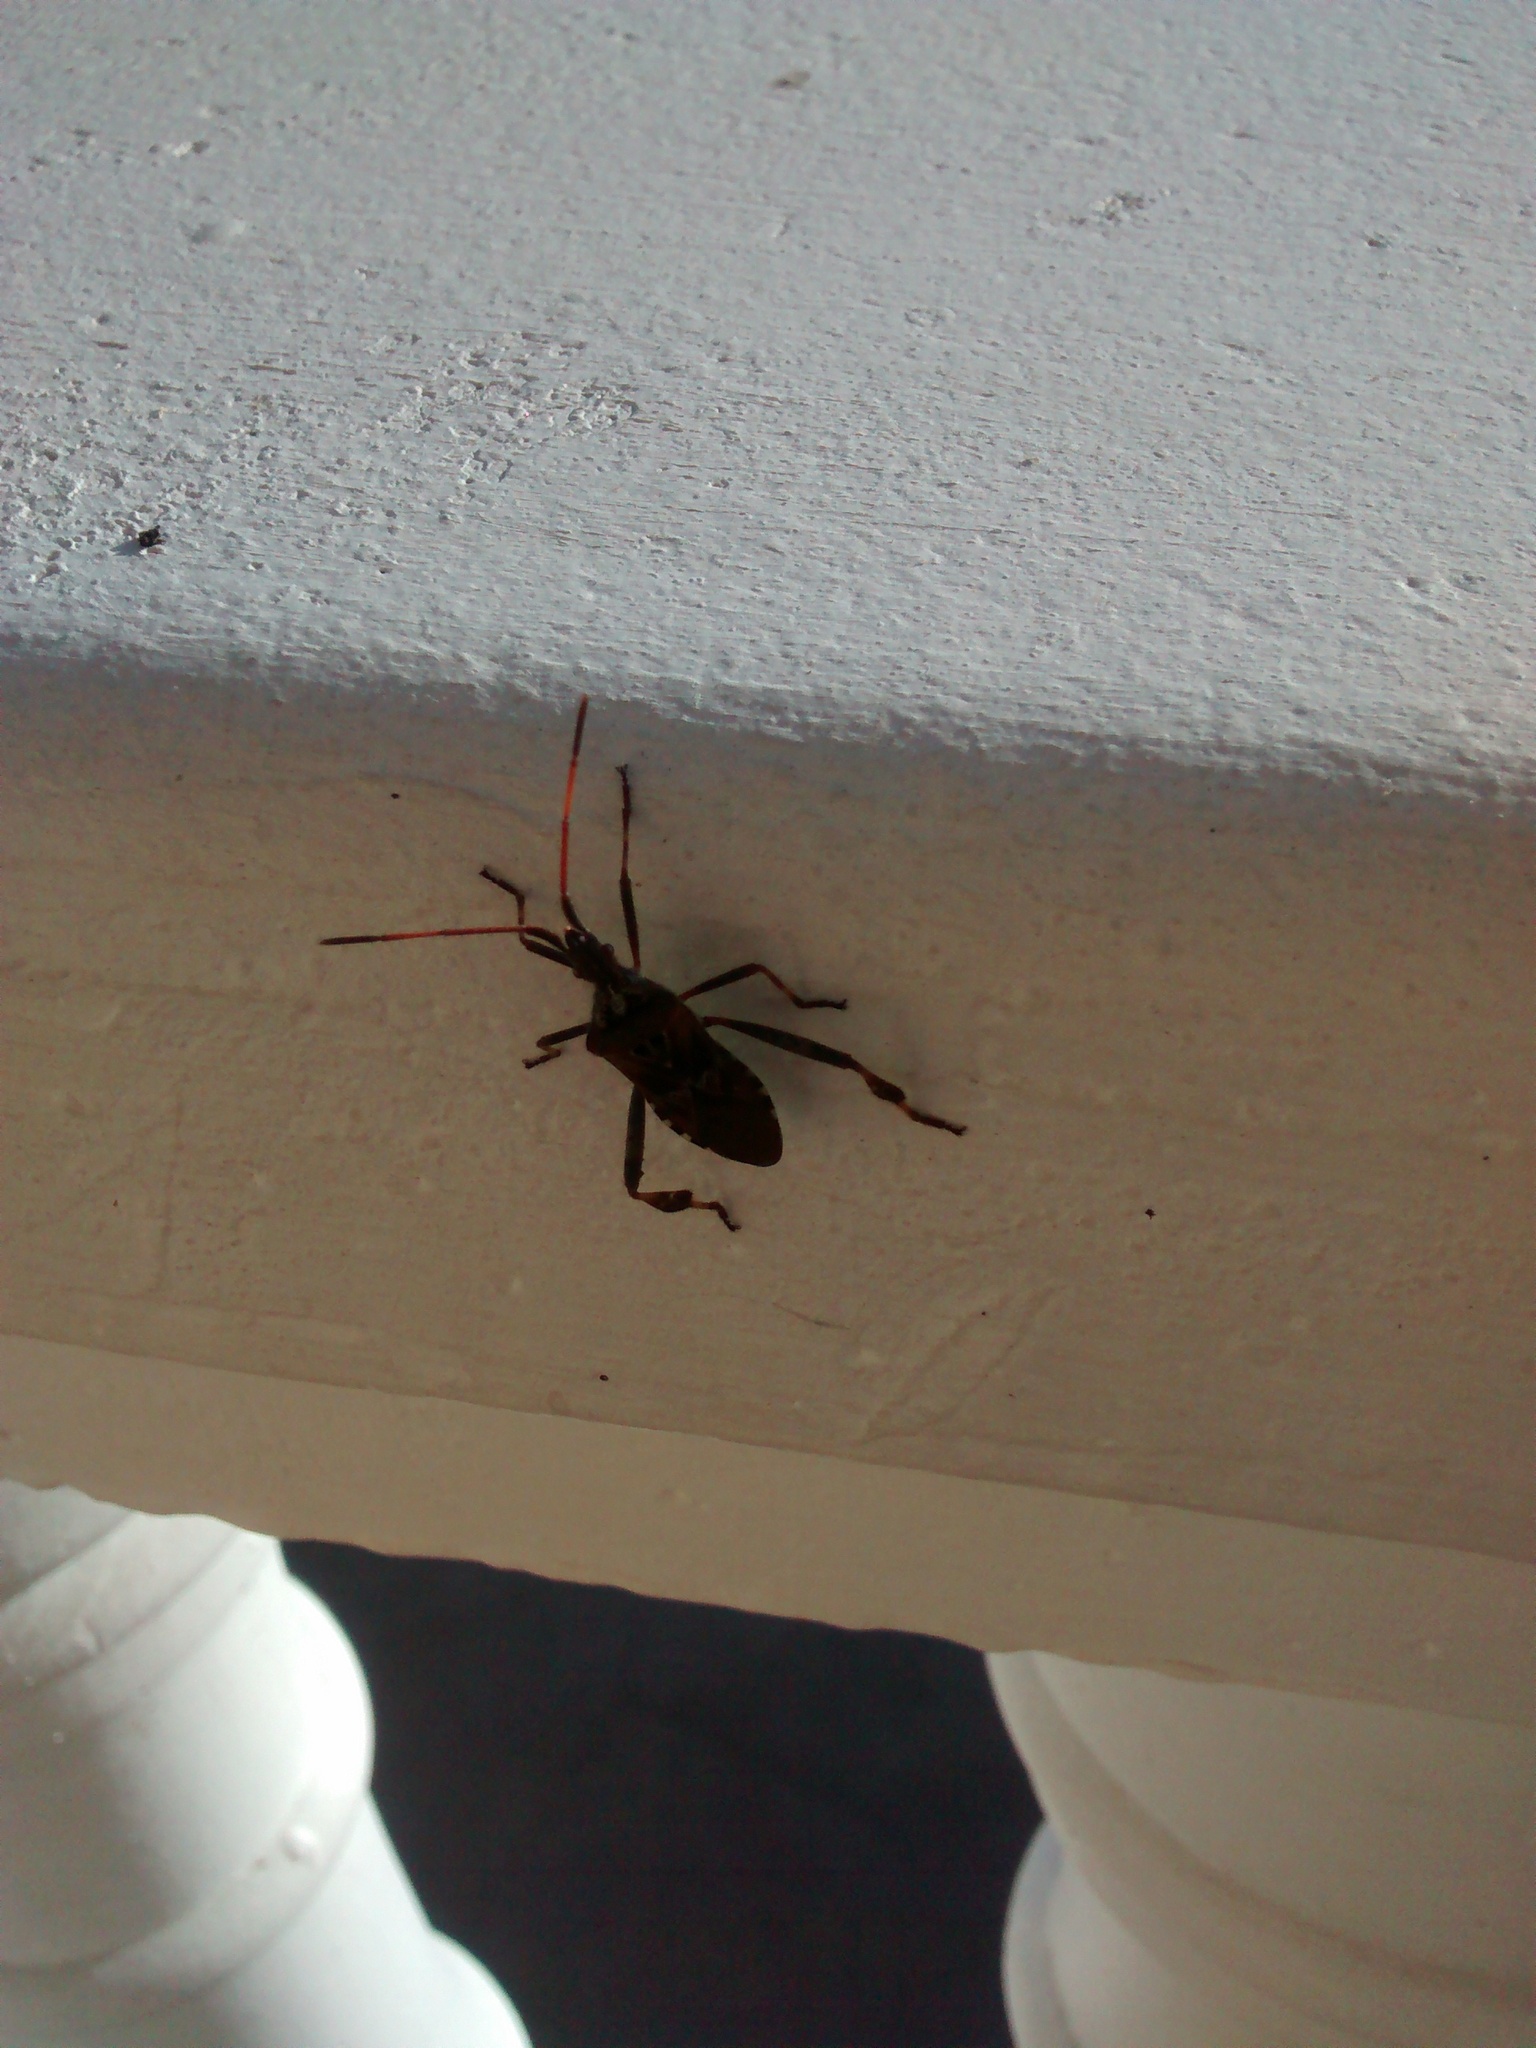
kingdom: Animalia
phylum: Arthropoda
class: Insecta
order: Hemiptera
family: Coreidae
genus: Leptoglossus
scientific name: Leptoglossus occidentalis
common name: Western conifer-seed bug
